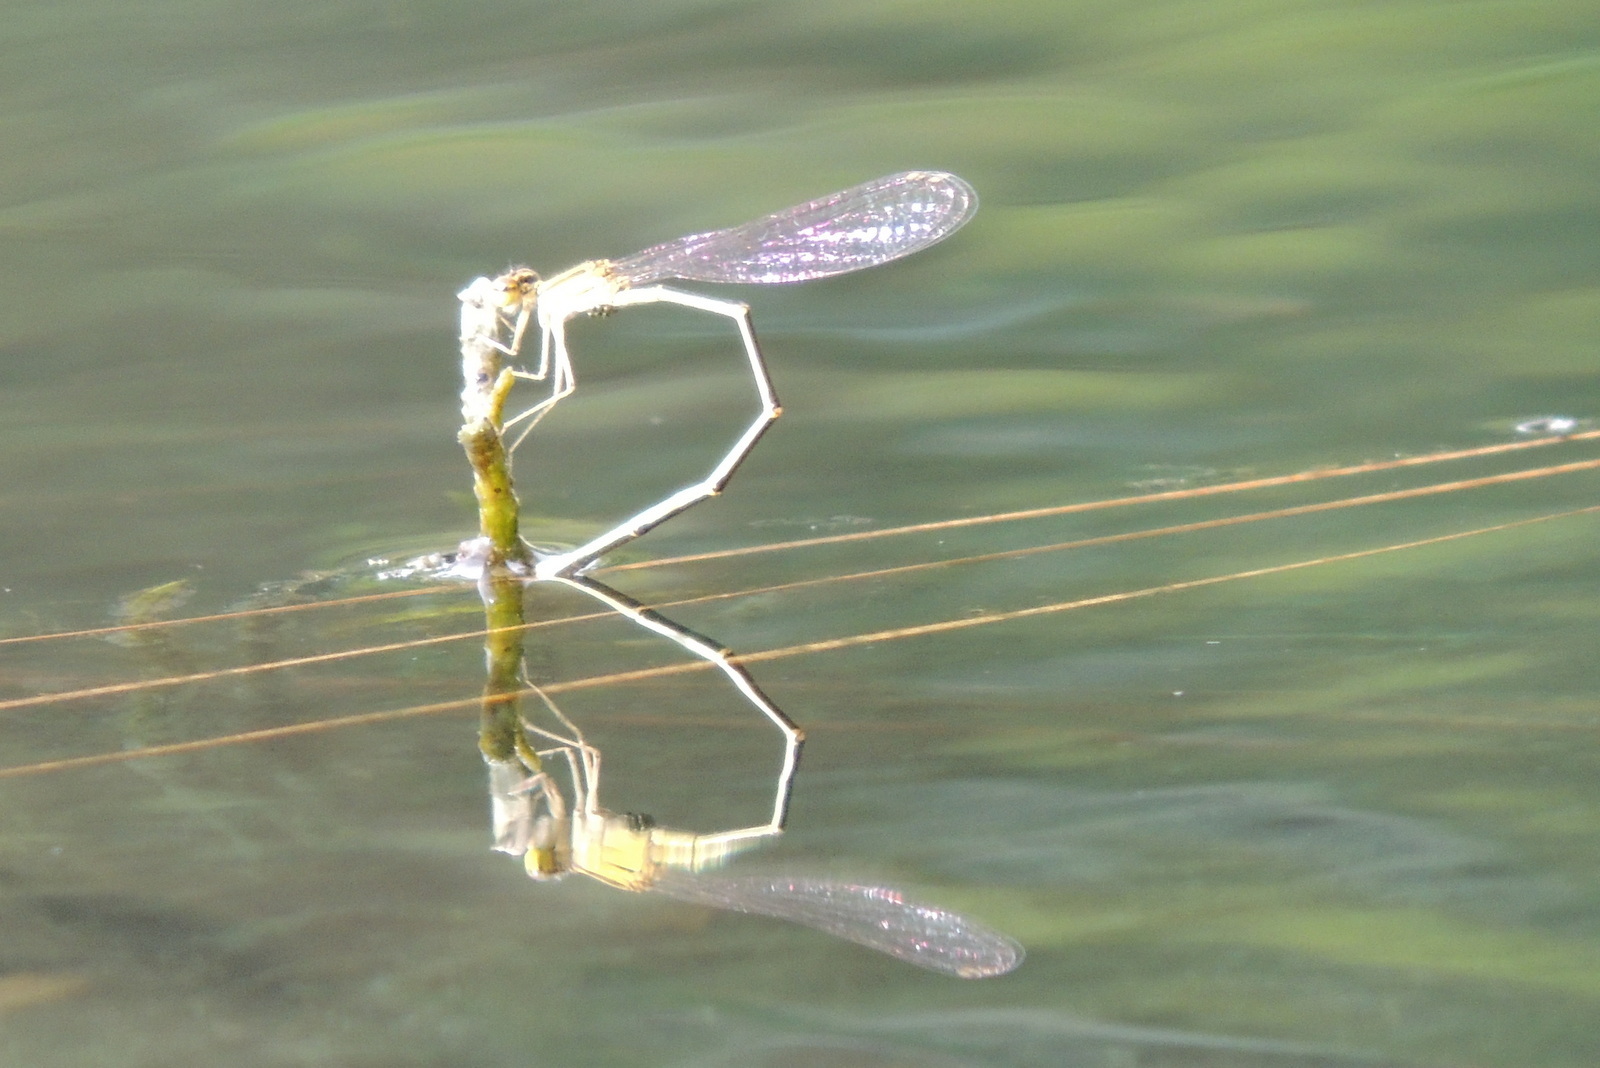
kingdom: Animalia
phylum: Arthropoda
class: Insecta
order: Odonata
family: Coenagrionidae
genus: Enallagma
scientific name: Enallagma pollutum
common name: Florida bluet
